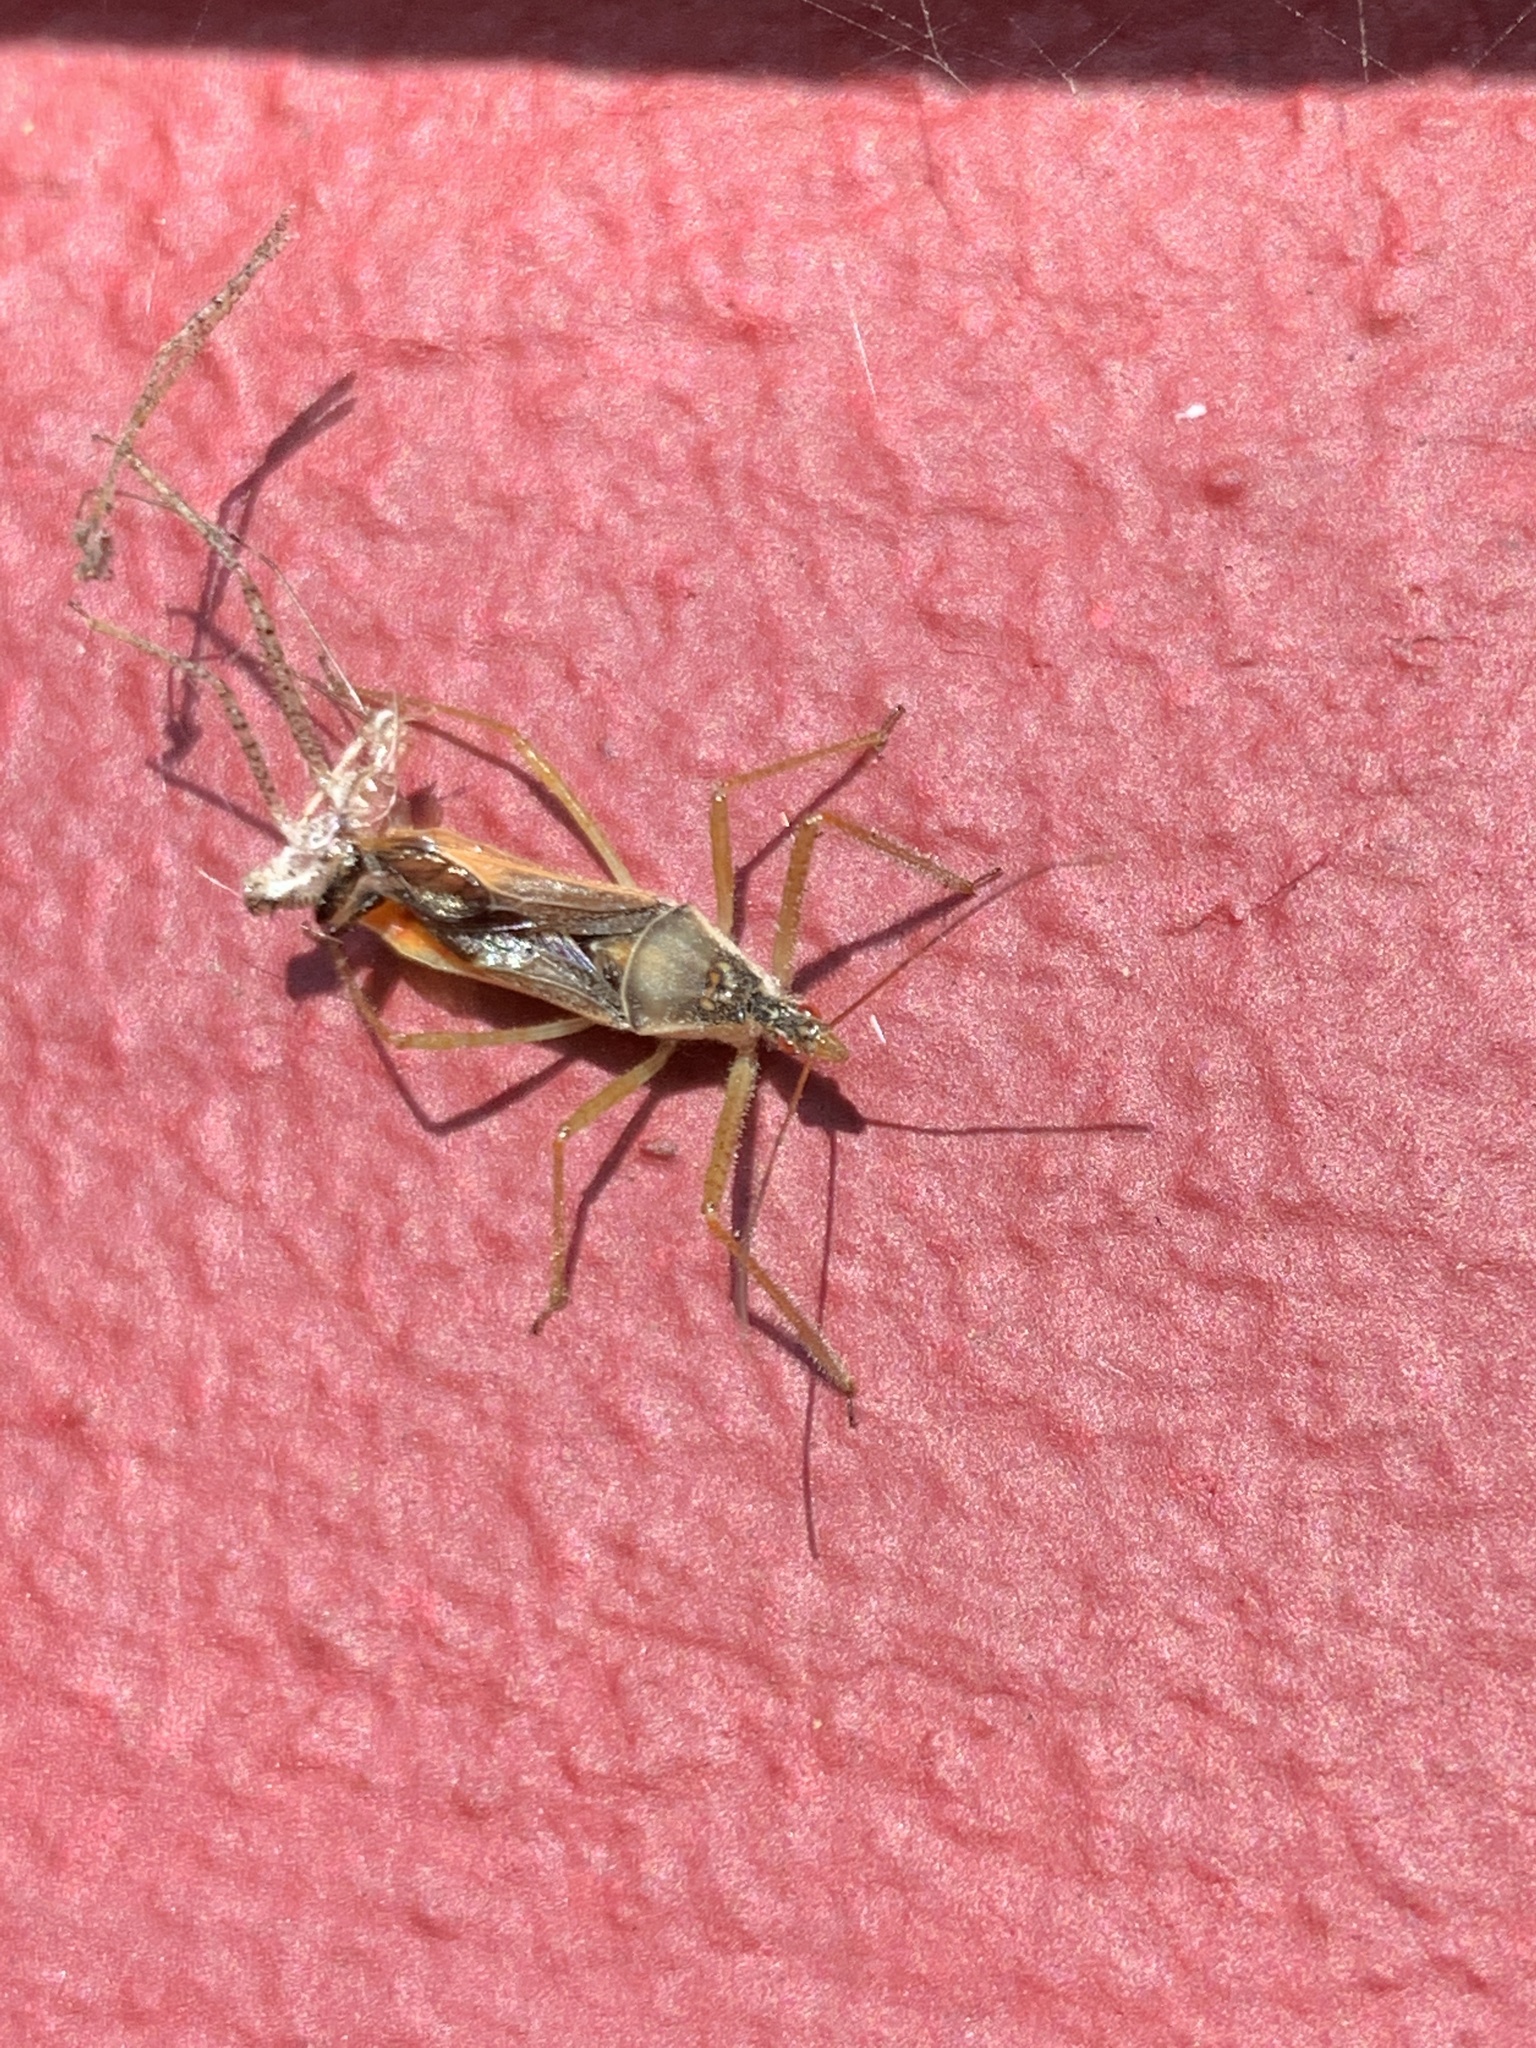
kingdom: Animalia
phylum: Arthropoda
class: Insecta
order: Hemiptera
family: Reduviidae
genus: Zelus
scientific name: Zelus renardii
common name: Assassin bug
